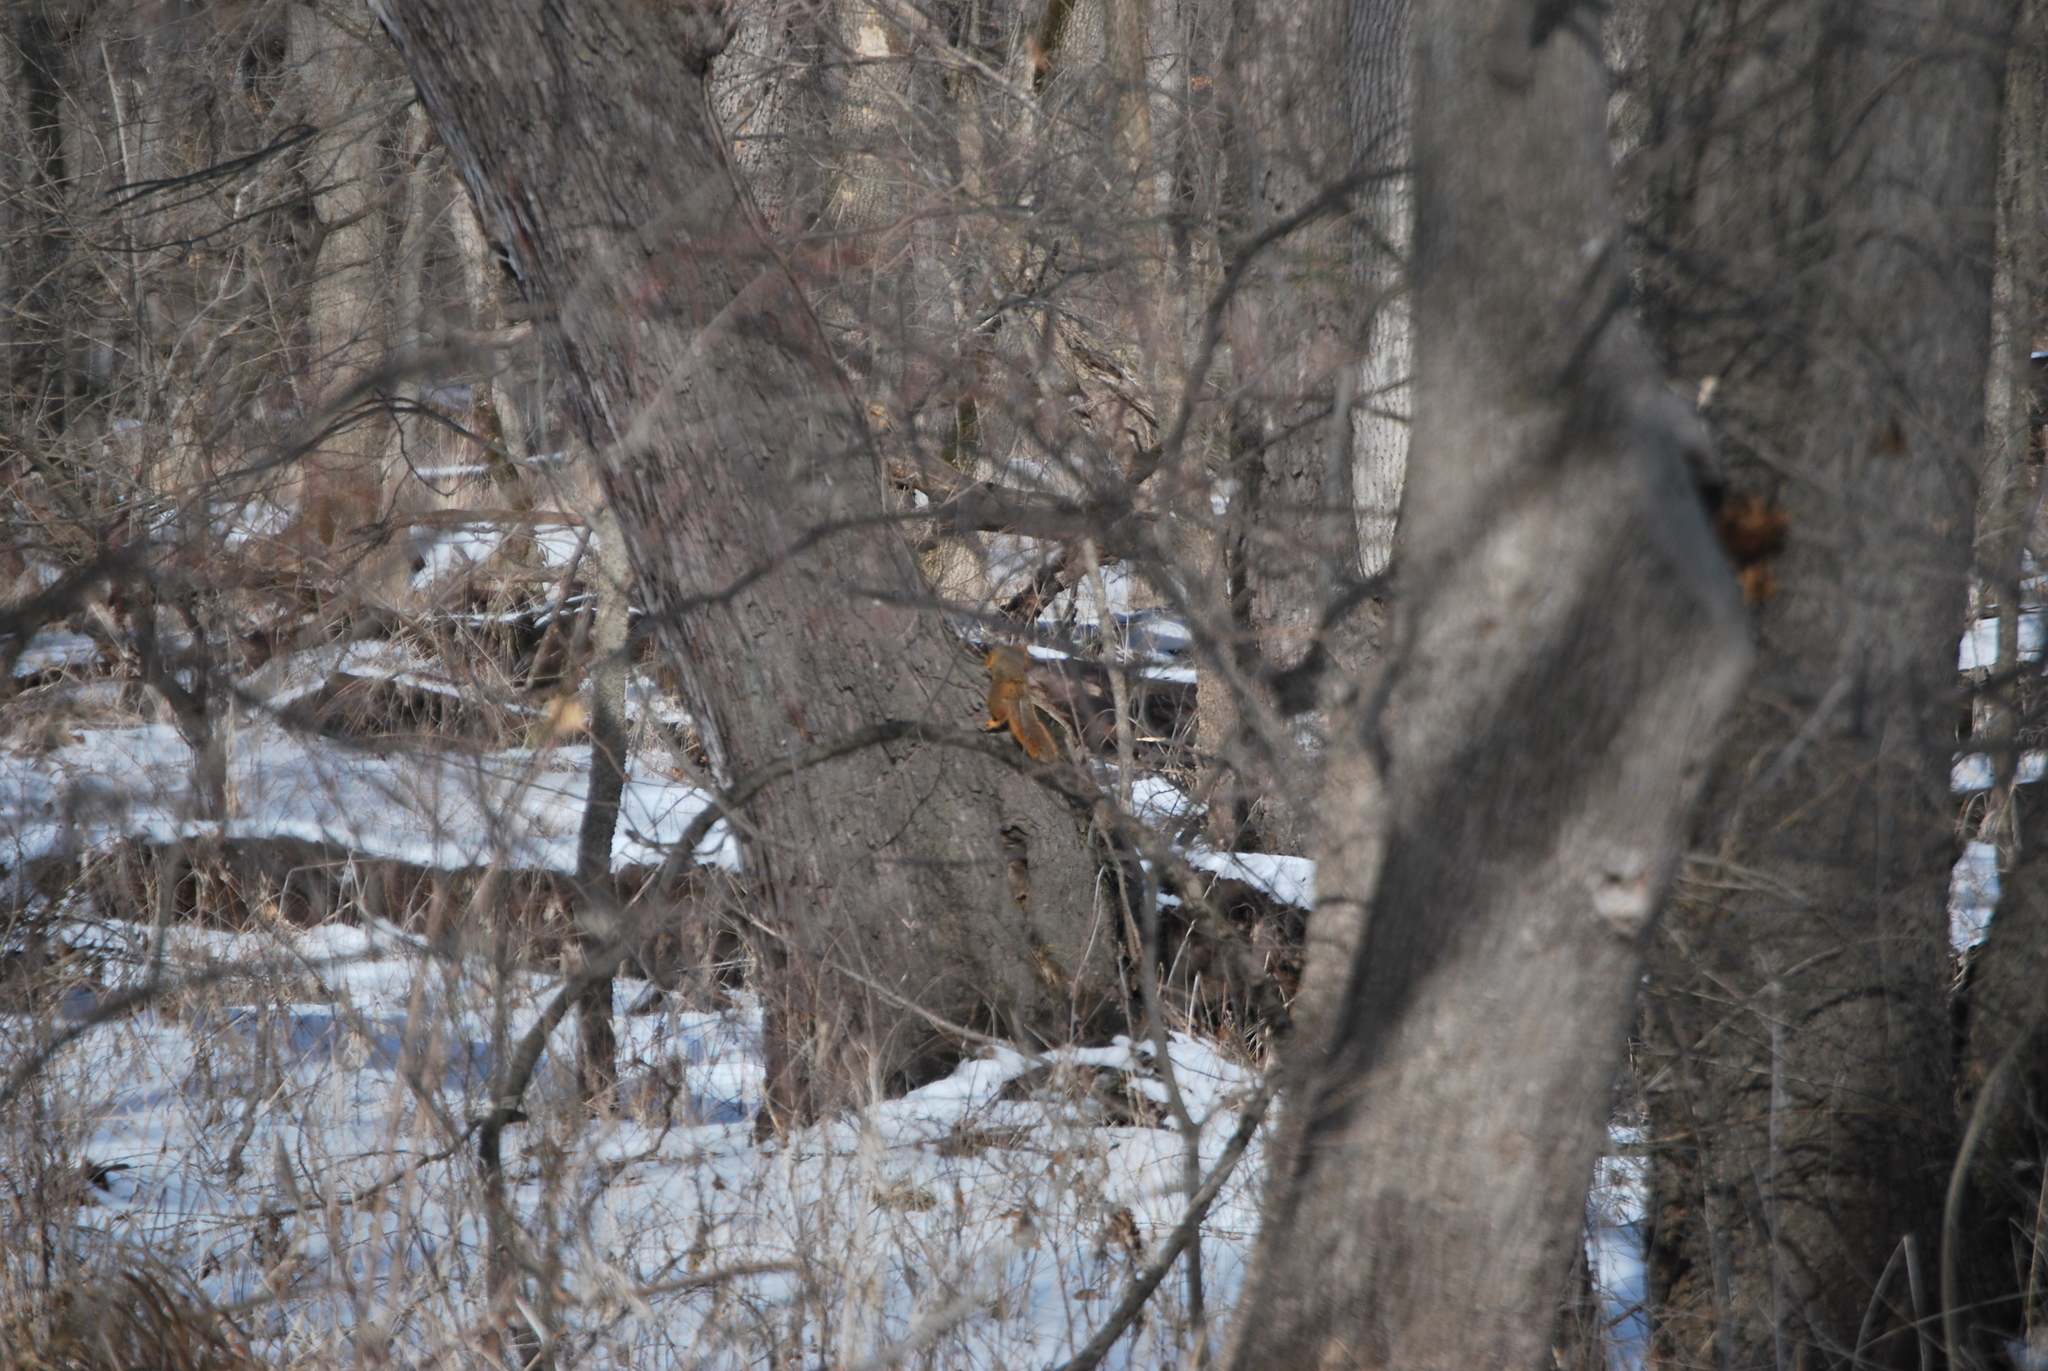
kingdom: Animalia
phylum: Chordata
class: Mammalia
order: Rodentia
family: Sciuridae
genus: Sciurus
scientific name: Sciurus niger
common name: Fox squirrel
